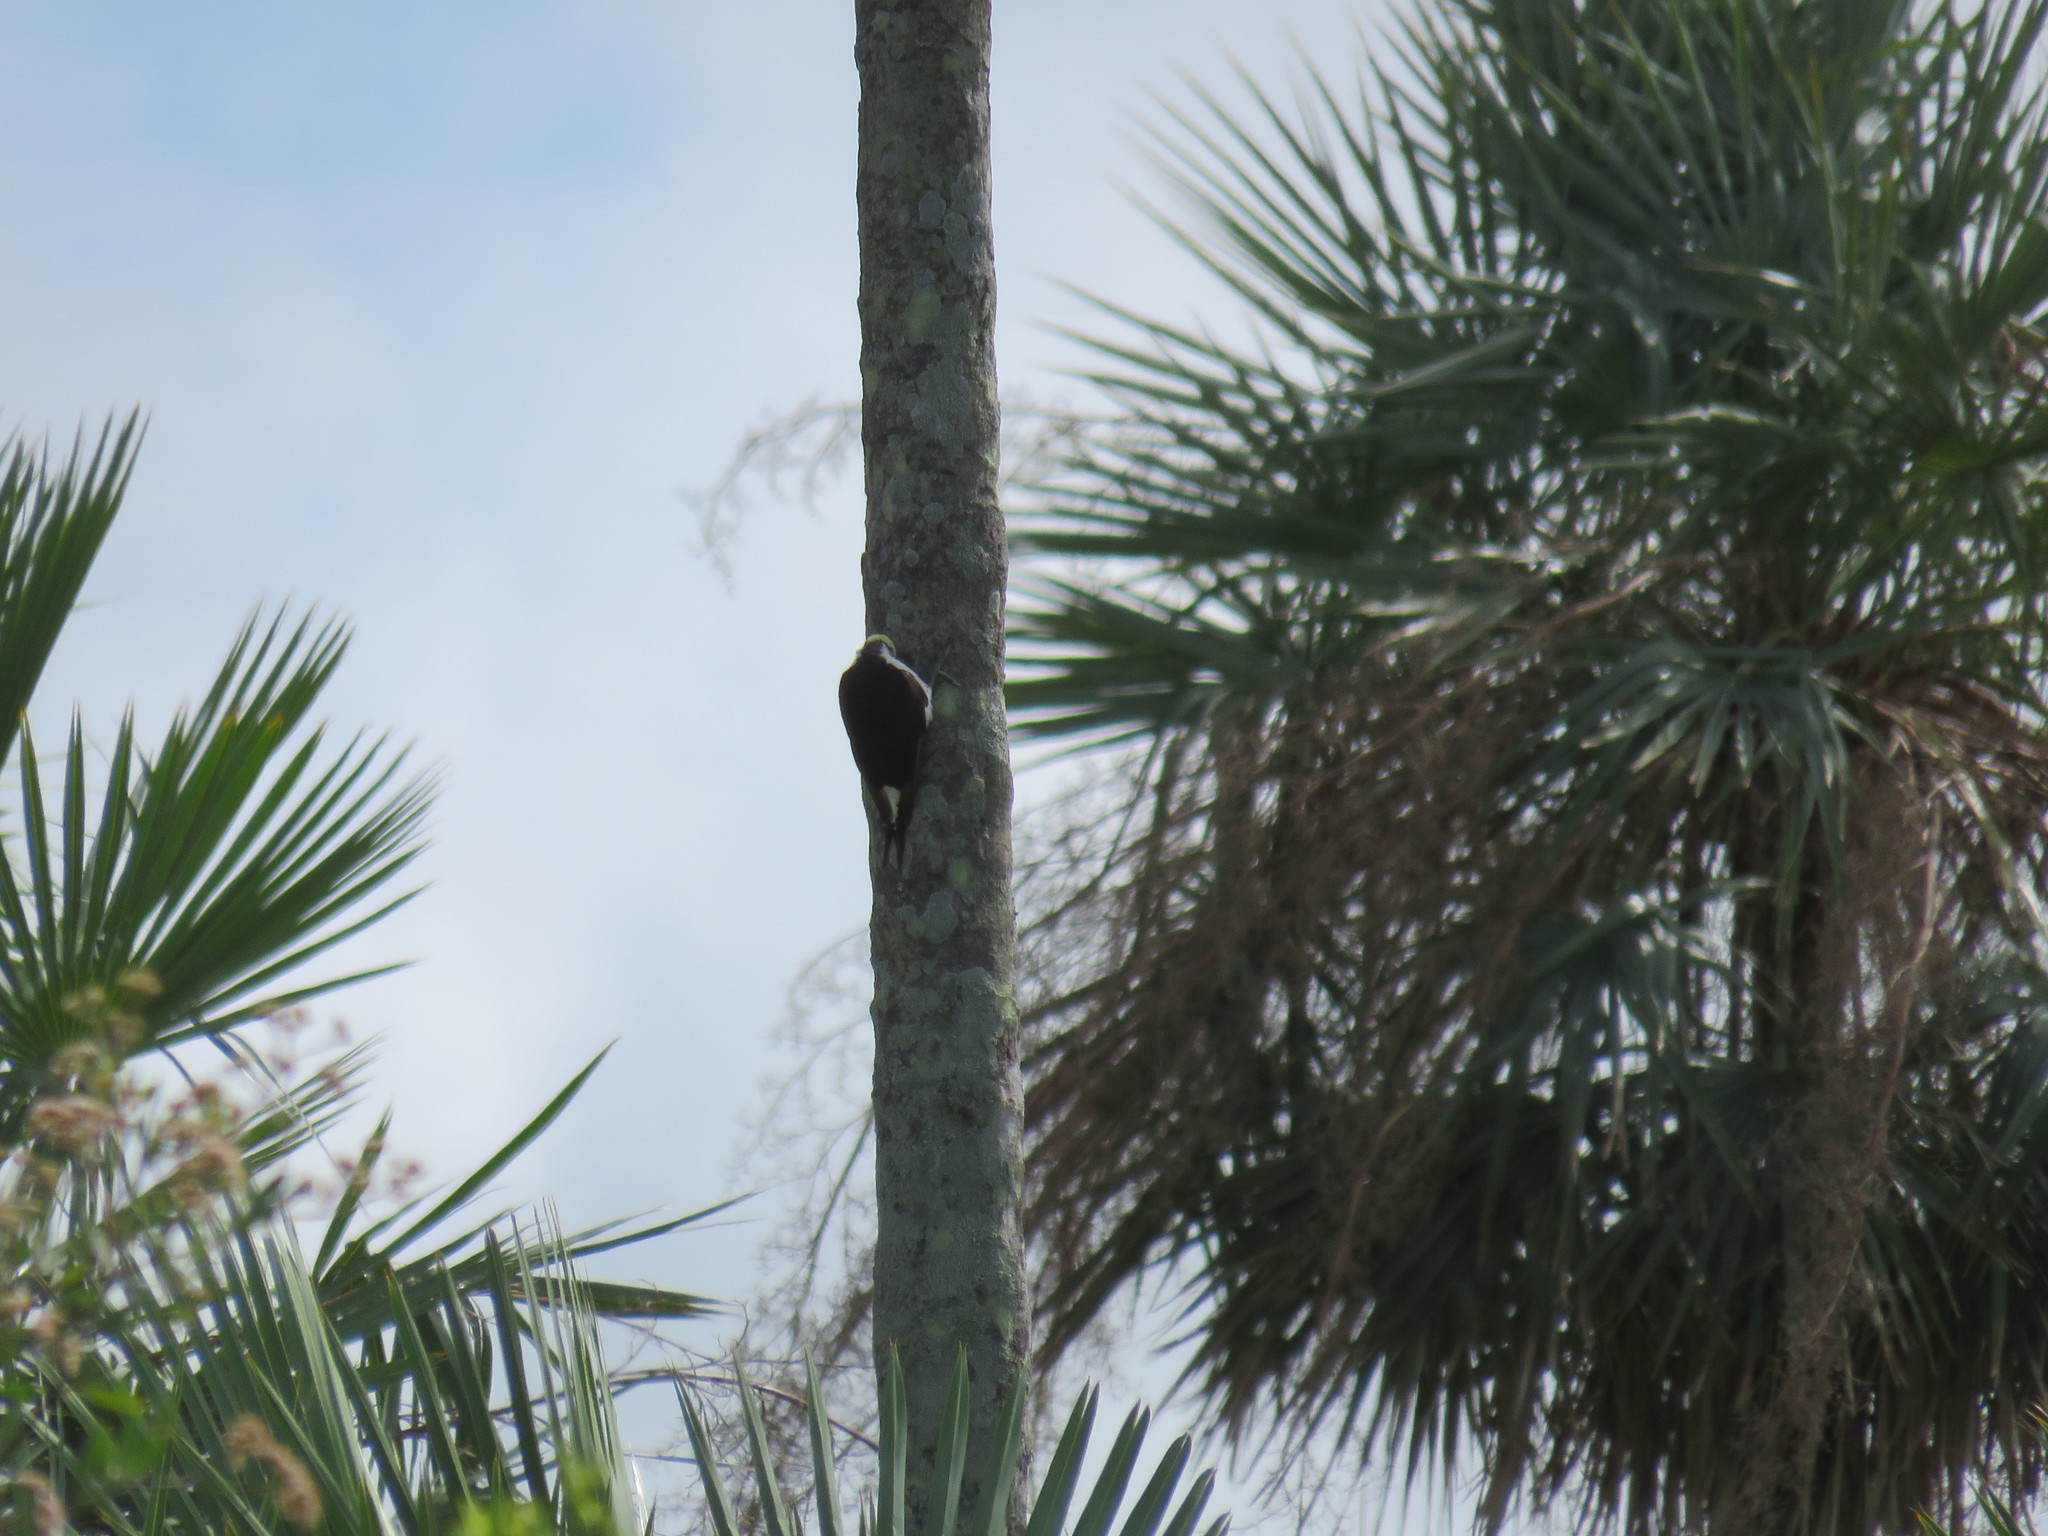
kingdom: Animalia
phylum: Chordata
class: Aves
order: Piciformes
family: Picidae
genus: Melanerpes
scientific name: Melanerpes candidus
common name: White woodpecker
